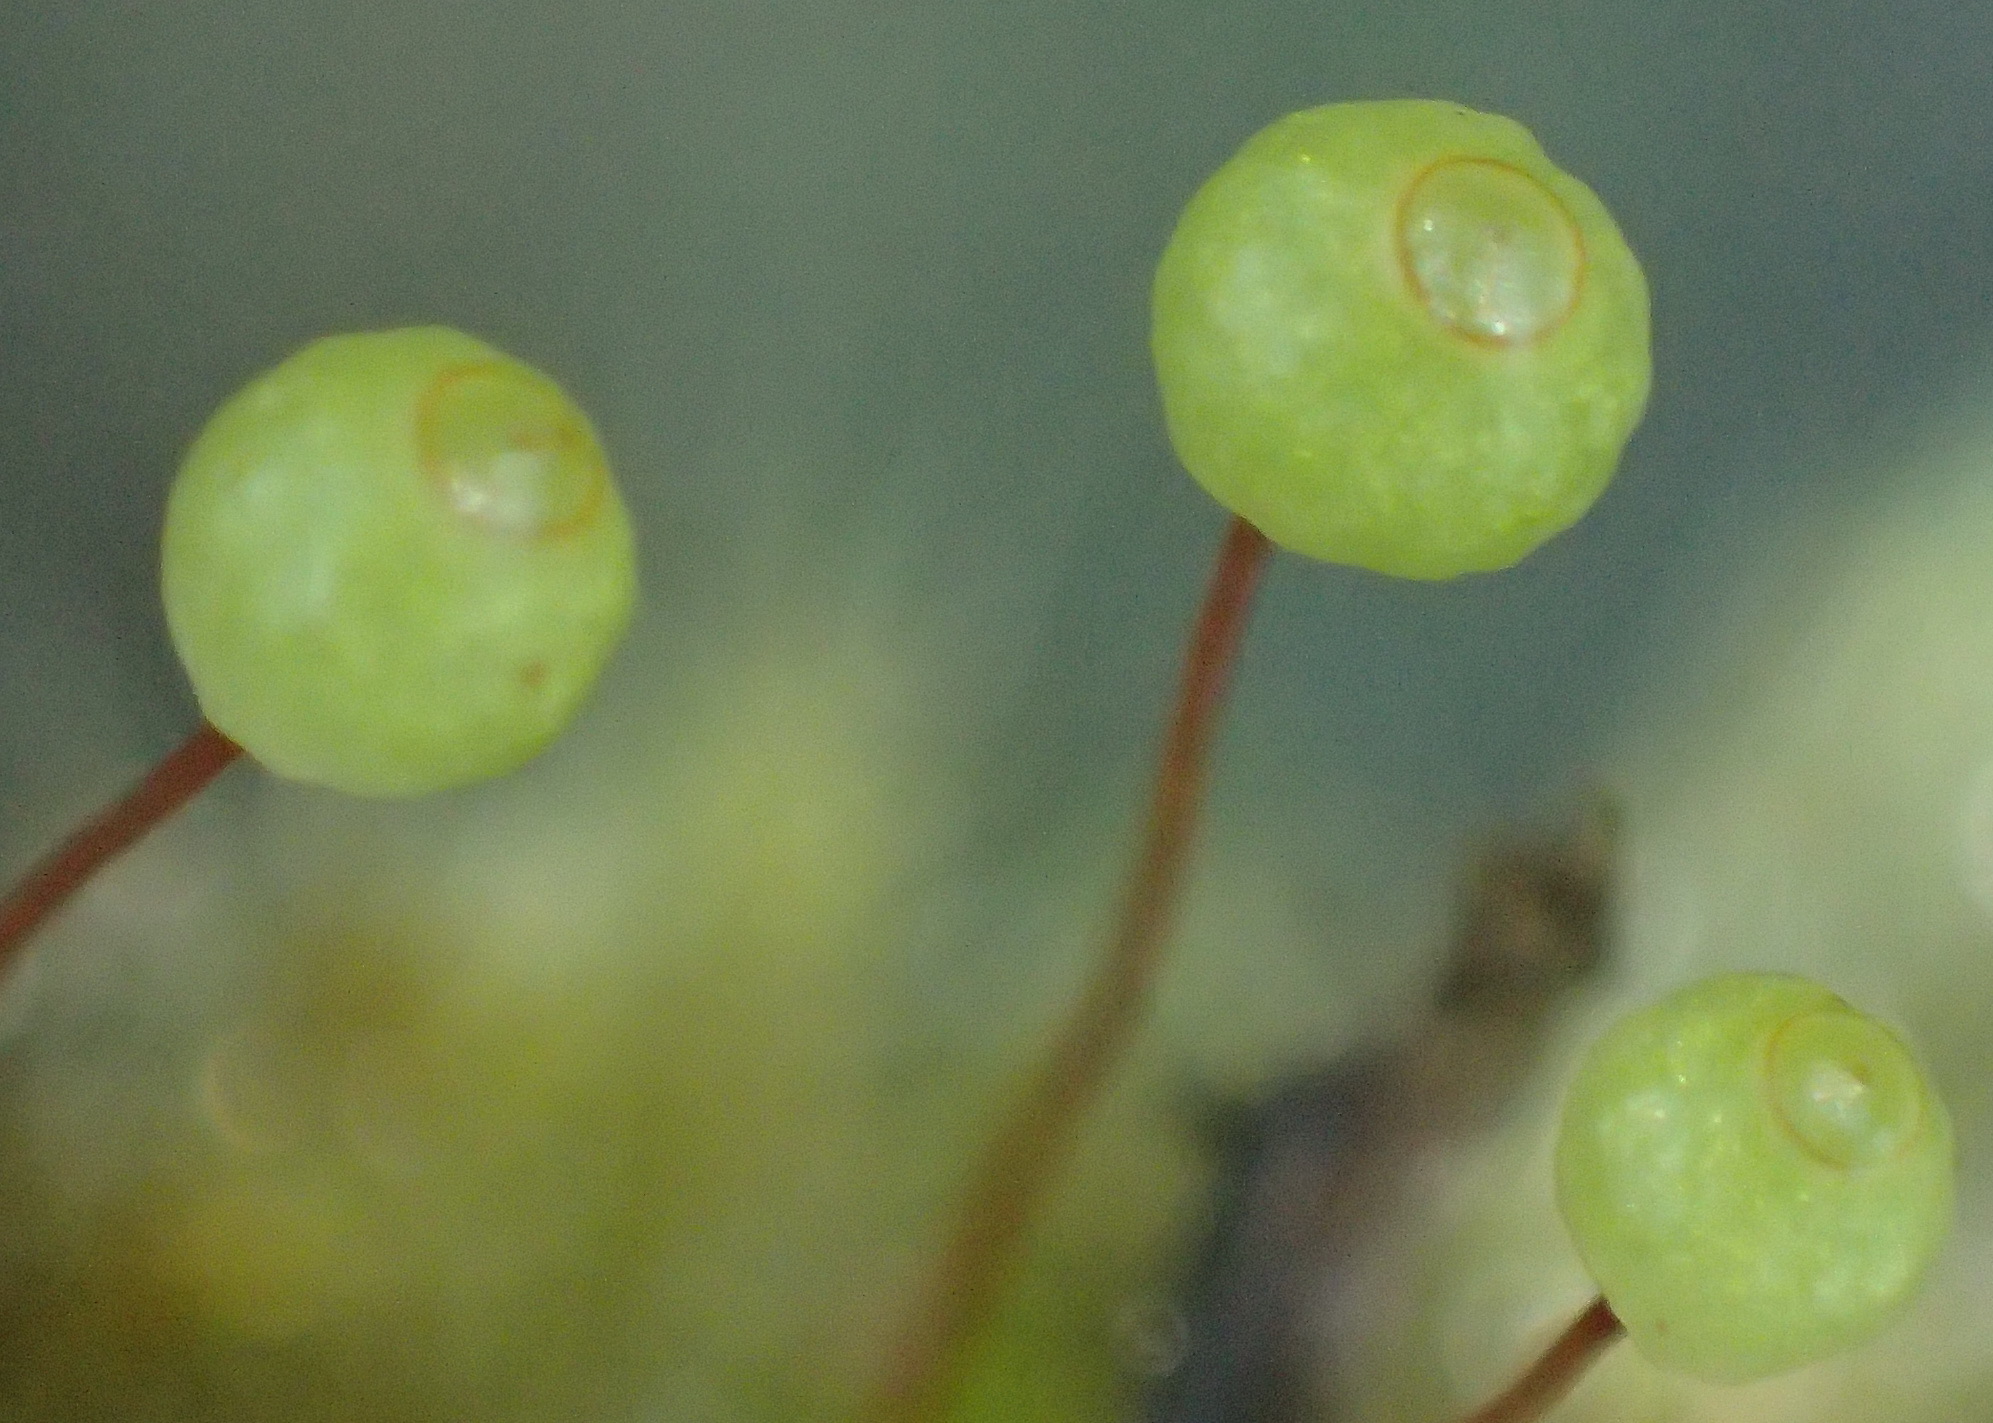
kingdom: Plantae
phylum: Bryophyta
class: Bryopsida
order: Bartramiales
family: Bartramiaceae
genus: Bartramia
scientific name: Bartramia hampeana
